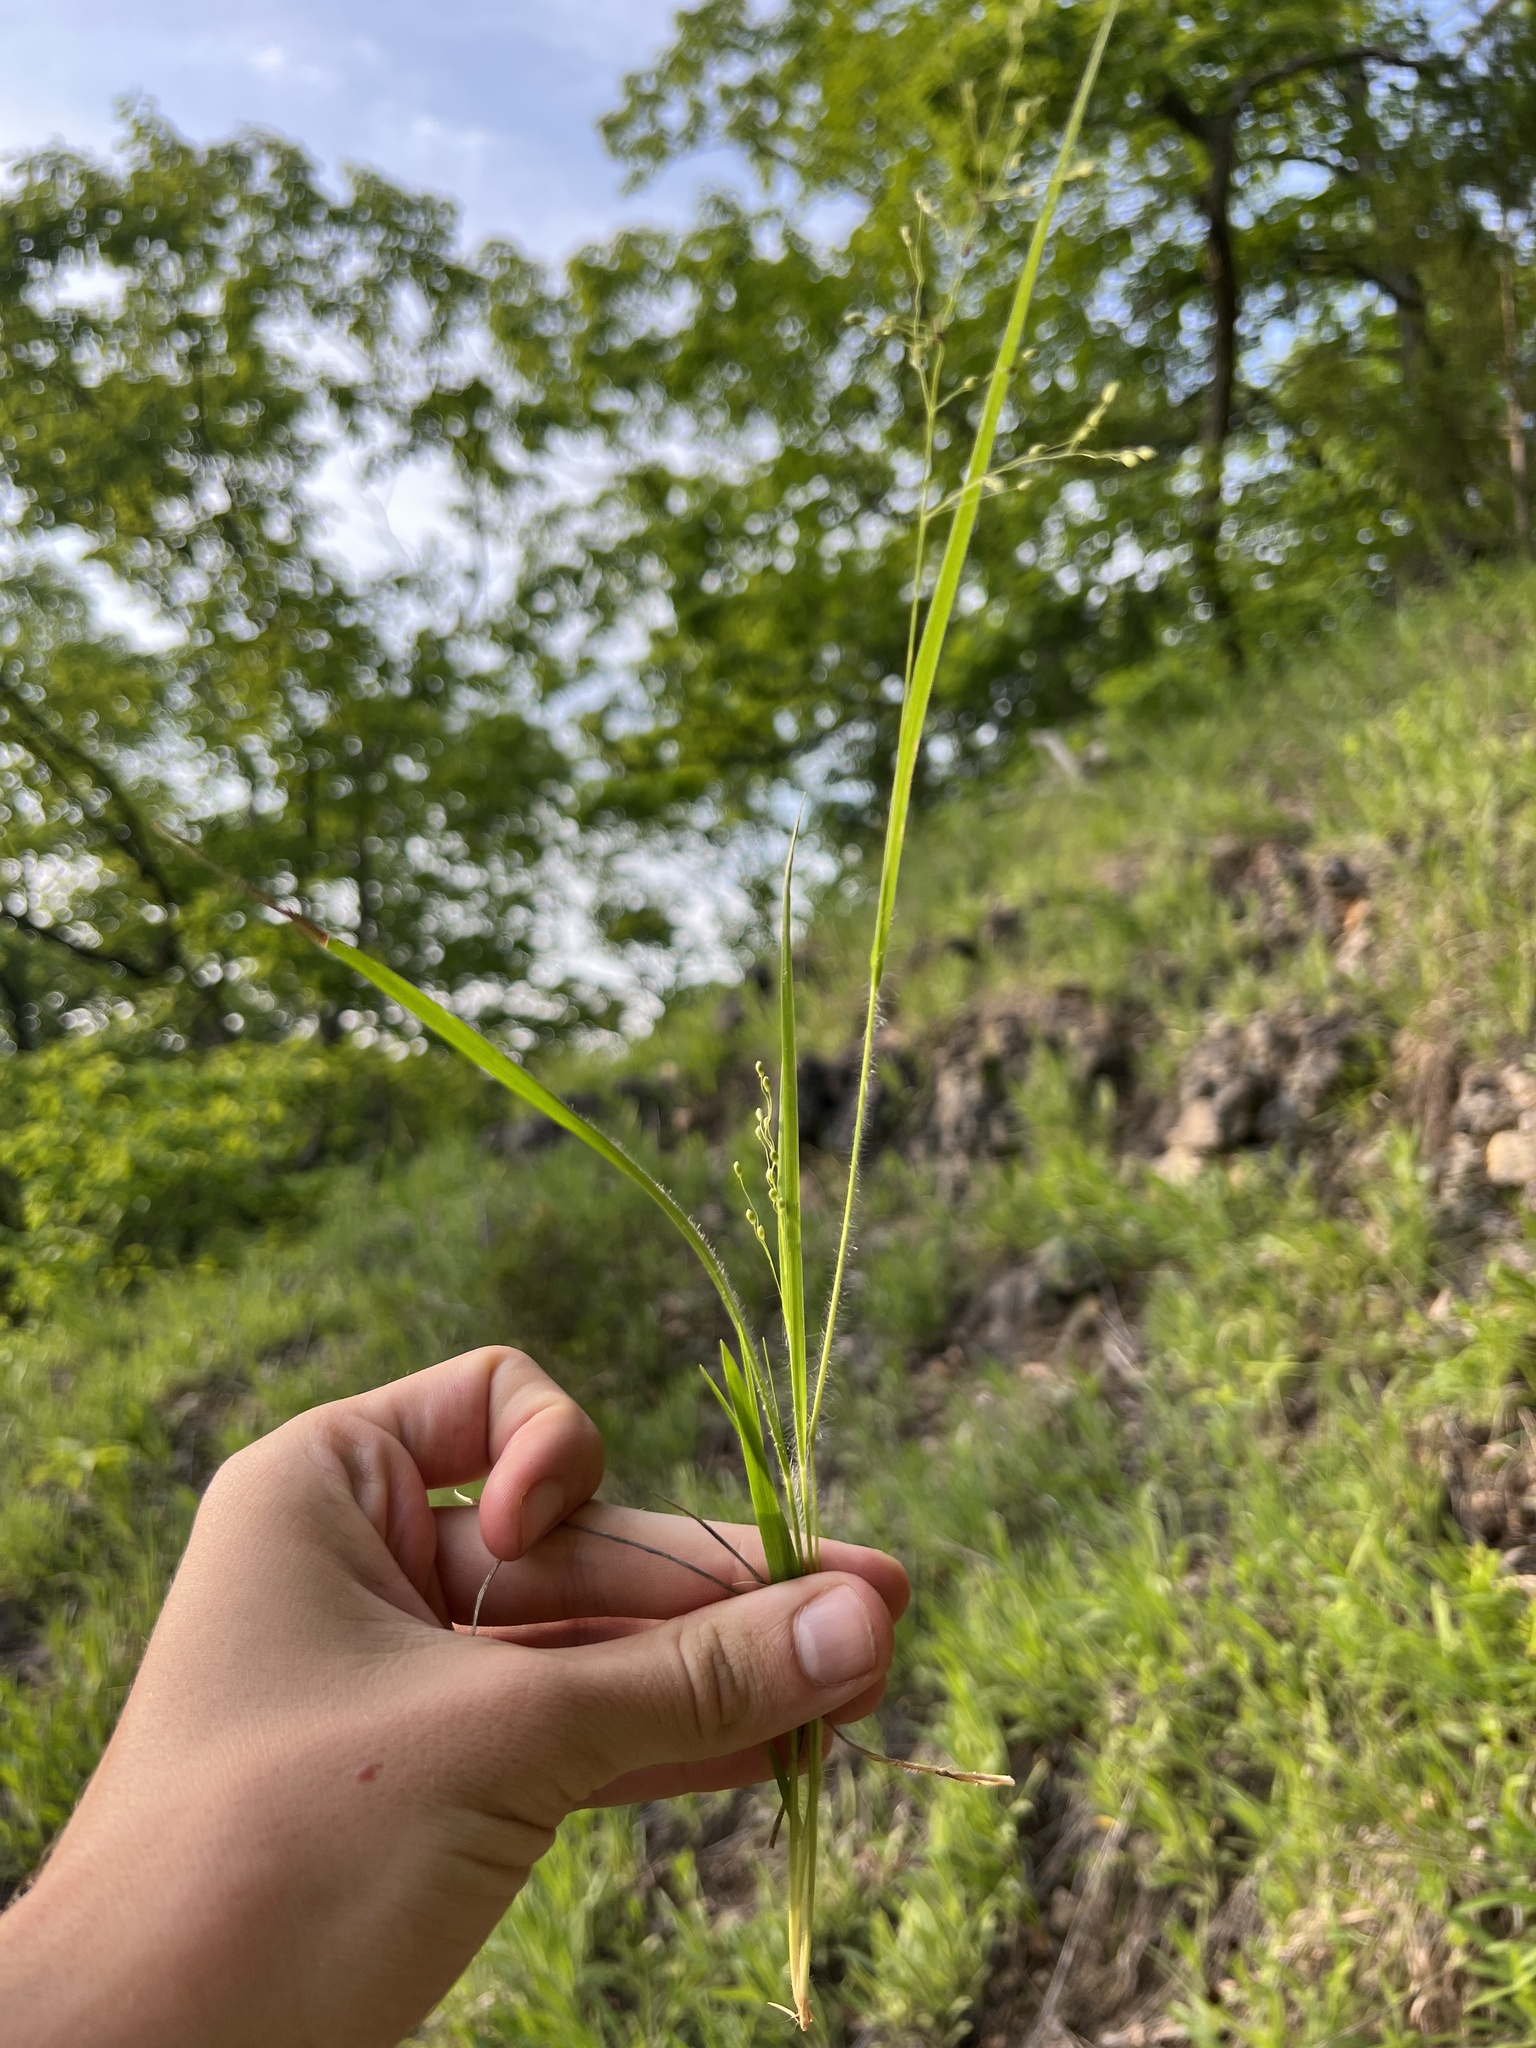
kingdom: Plantae
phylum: Tracheophyta
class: Liliopsida
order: Poales
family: Poaceae
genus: Dichanthelium
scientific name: Dichanthelium linearifolium
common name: Linear-leaved panicgrass
